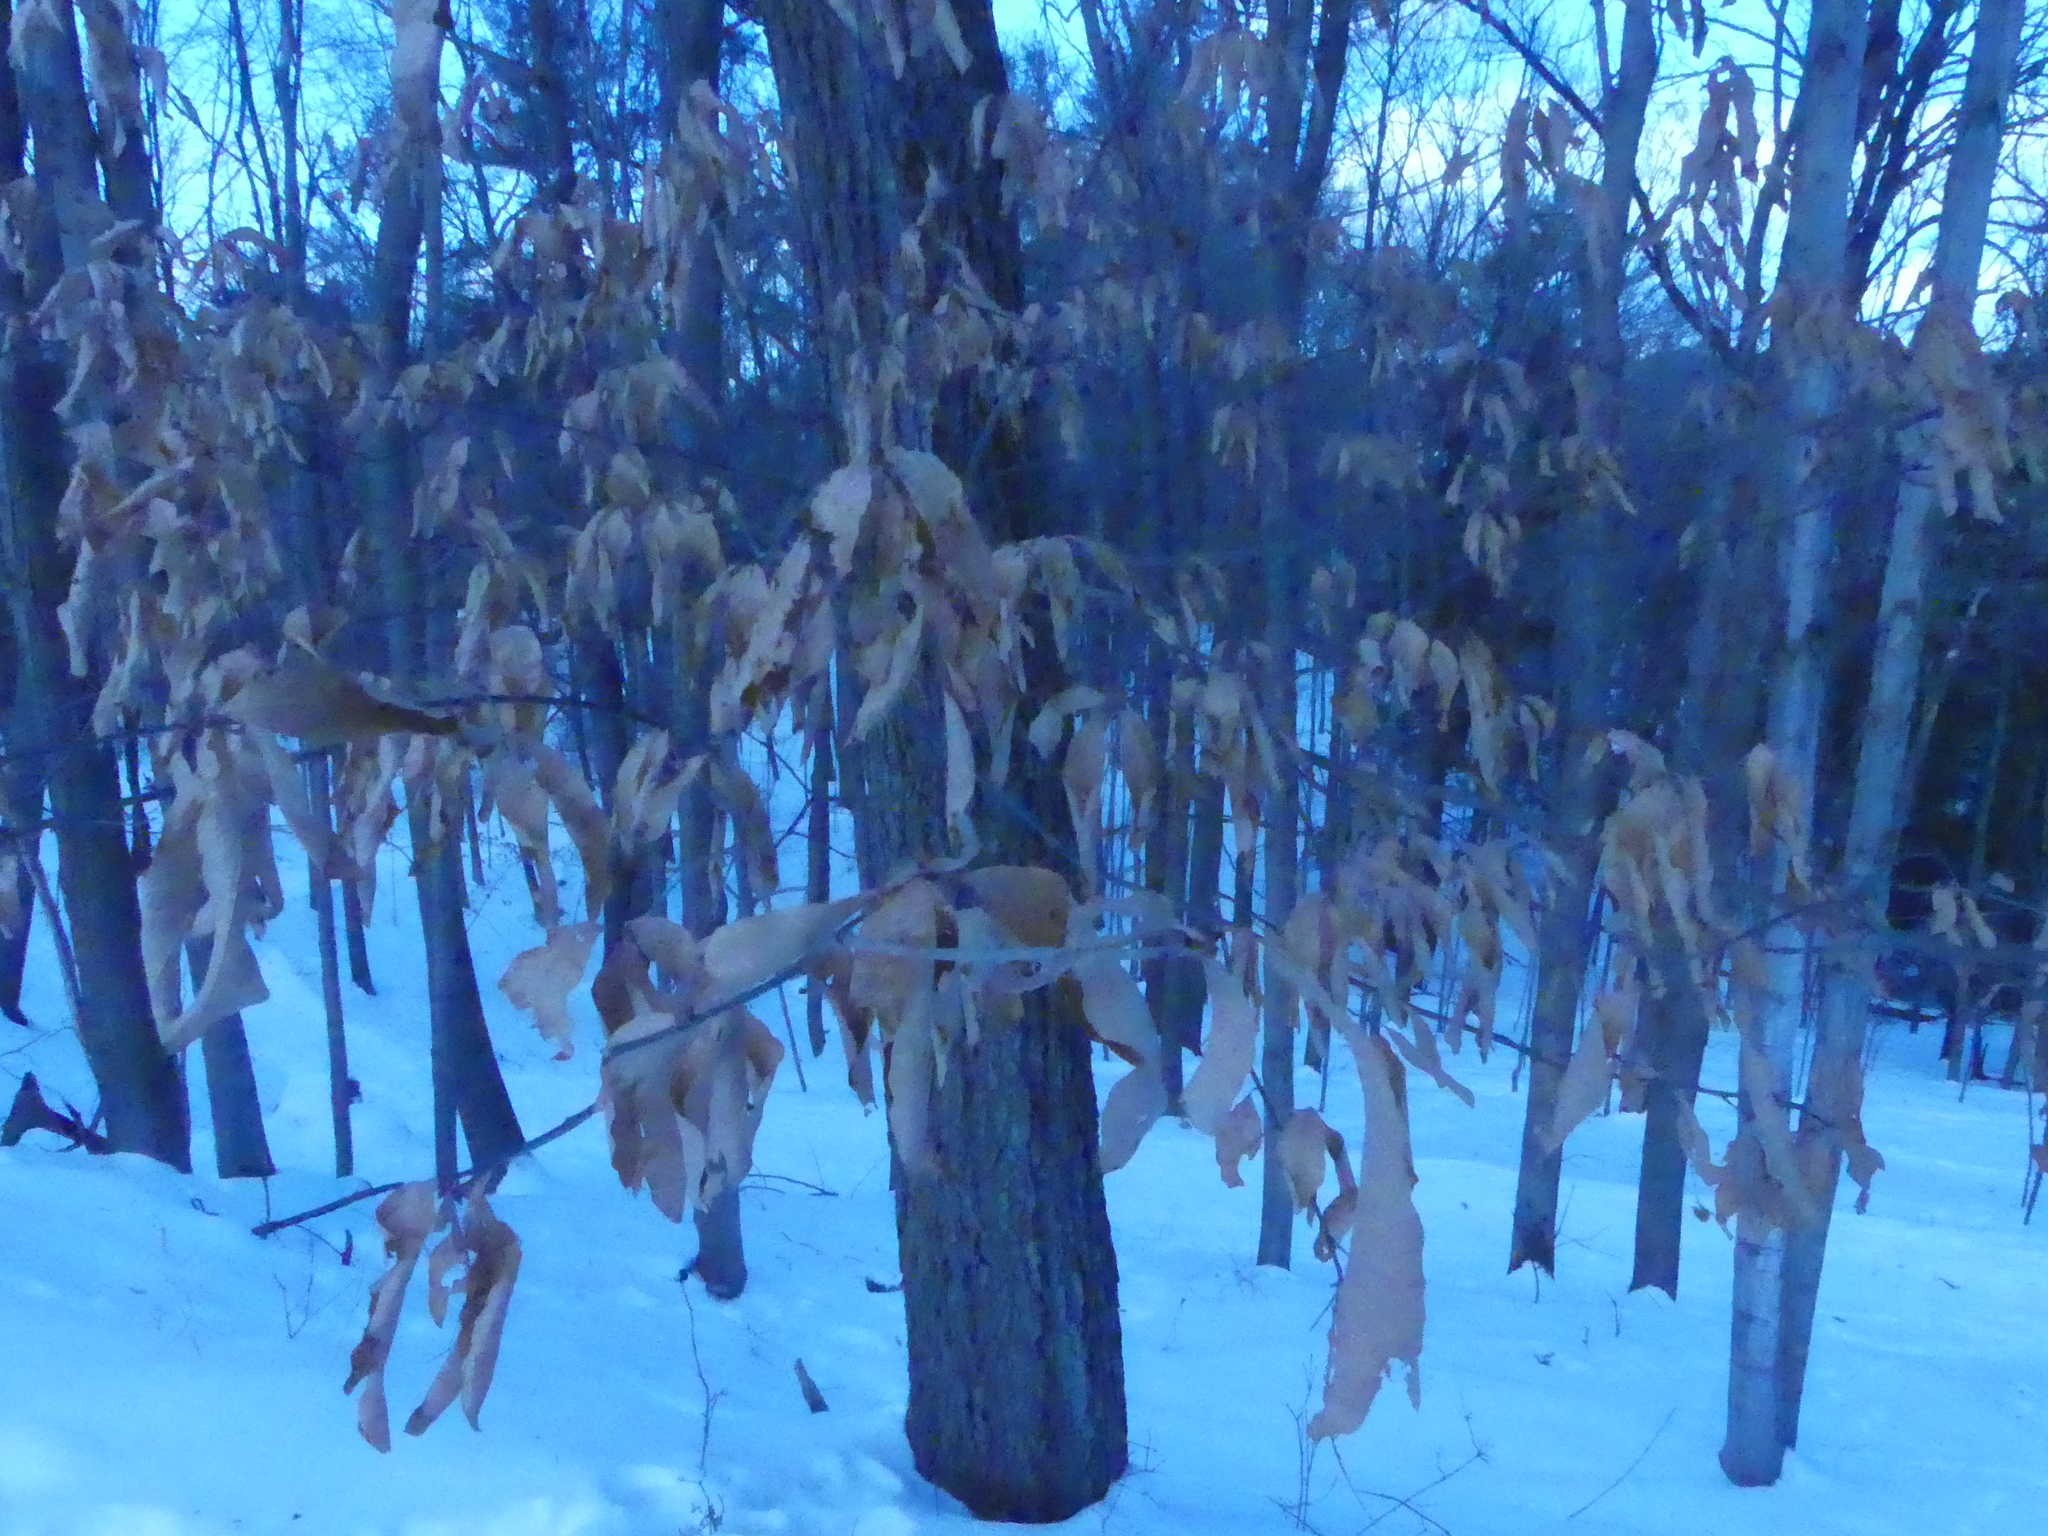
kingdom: Plantae
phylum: Tracheophyta
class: Magnoliopsida
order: Fagales
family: Fagaceae
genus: Fagus
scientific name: Fagus grandifolia
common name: American beech
